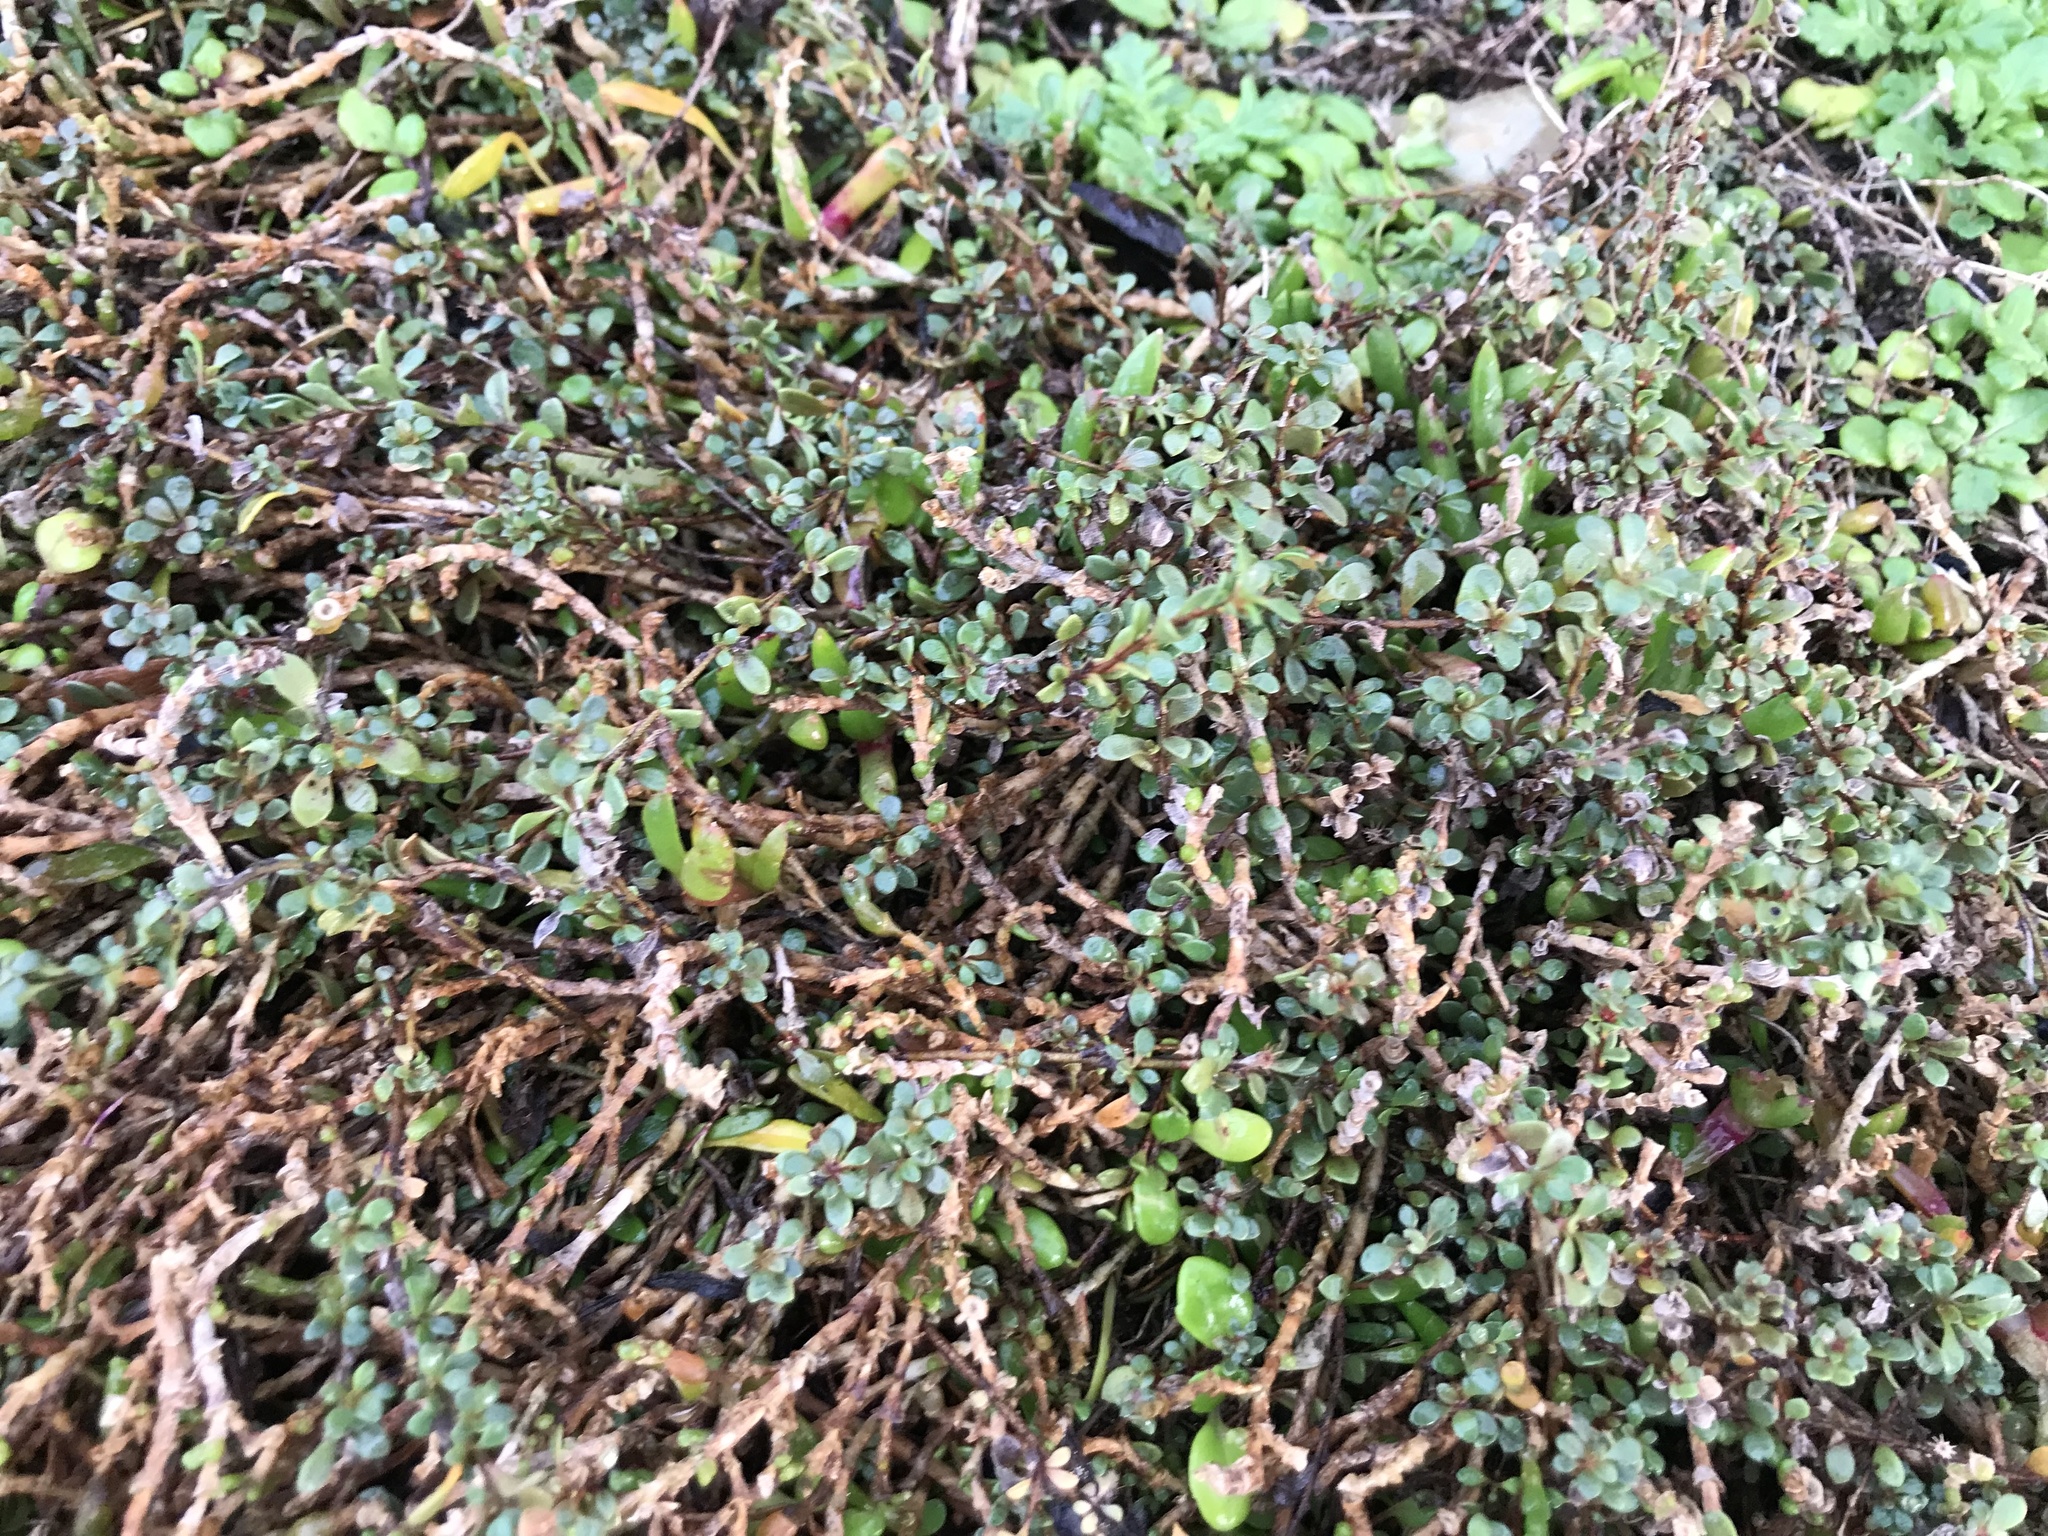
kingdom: Plantae
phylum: Tracheophyta
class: Magnoliopsida
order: Ericales
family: Primulaceae
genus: Samolus
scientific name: Samolus repens
